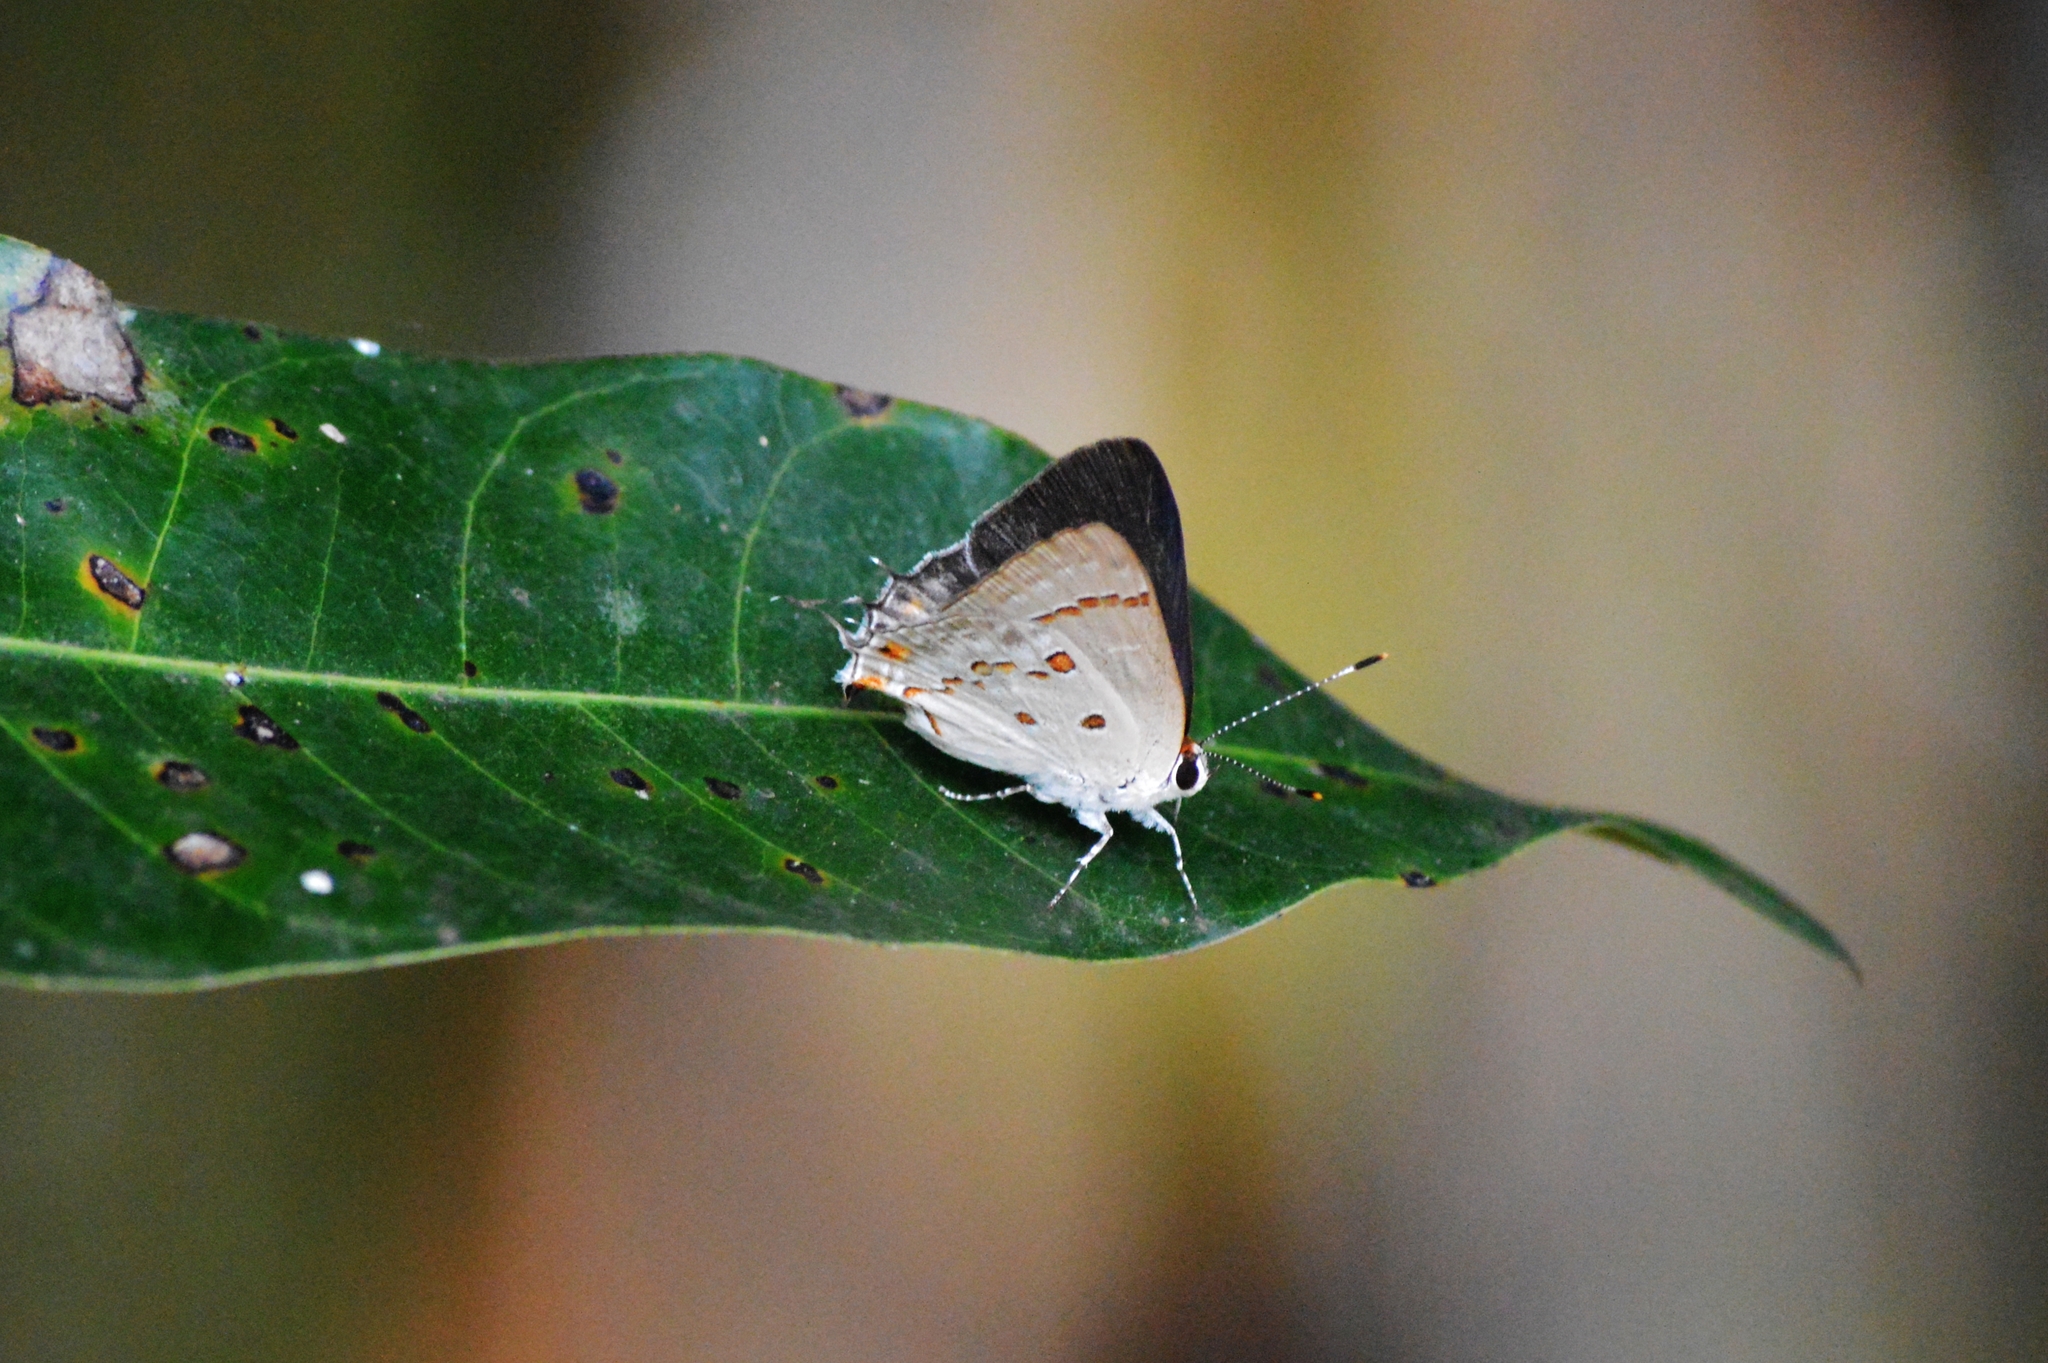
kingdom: Animalia
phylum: Arthropoda
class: Insecta
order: Lepidoptera
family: Lycaenidae
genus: Thecla
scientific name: Thecla ziba
